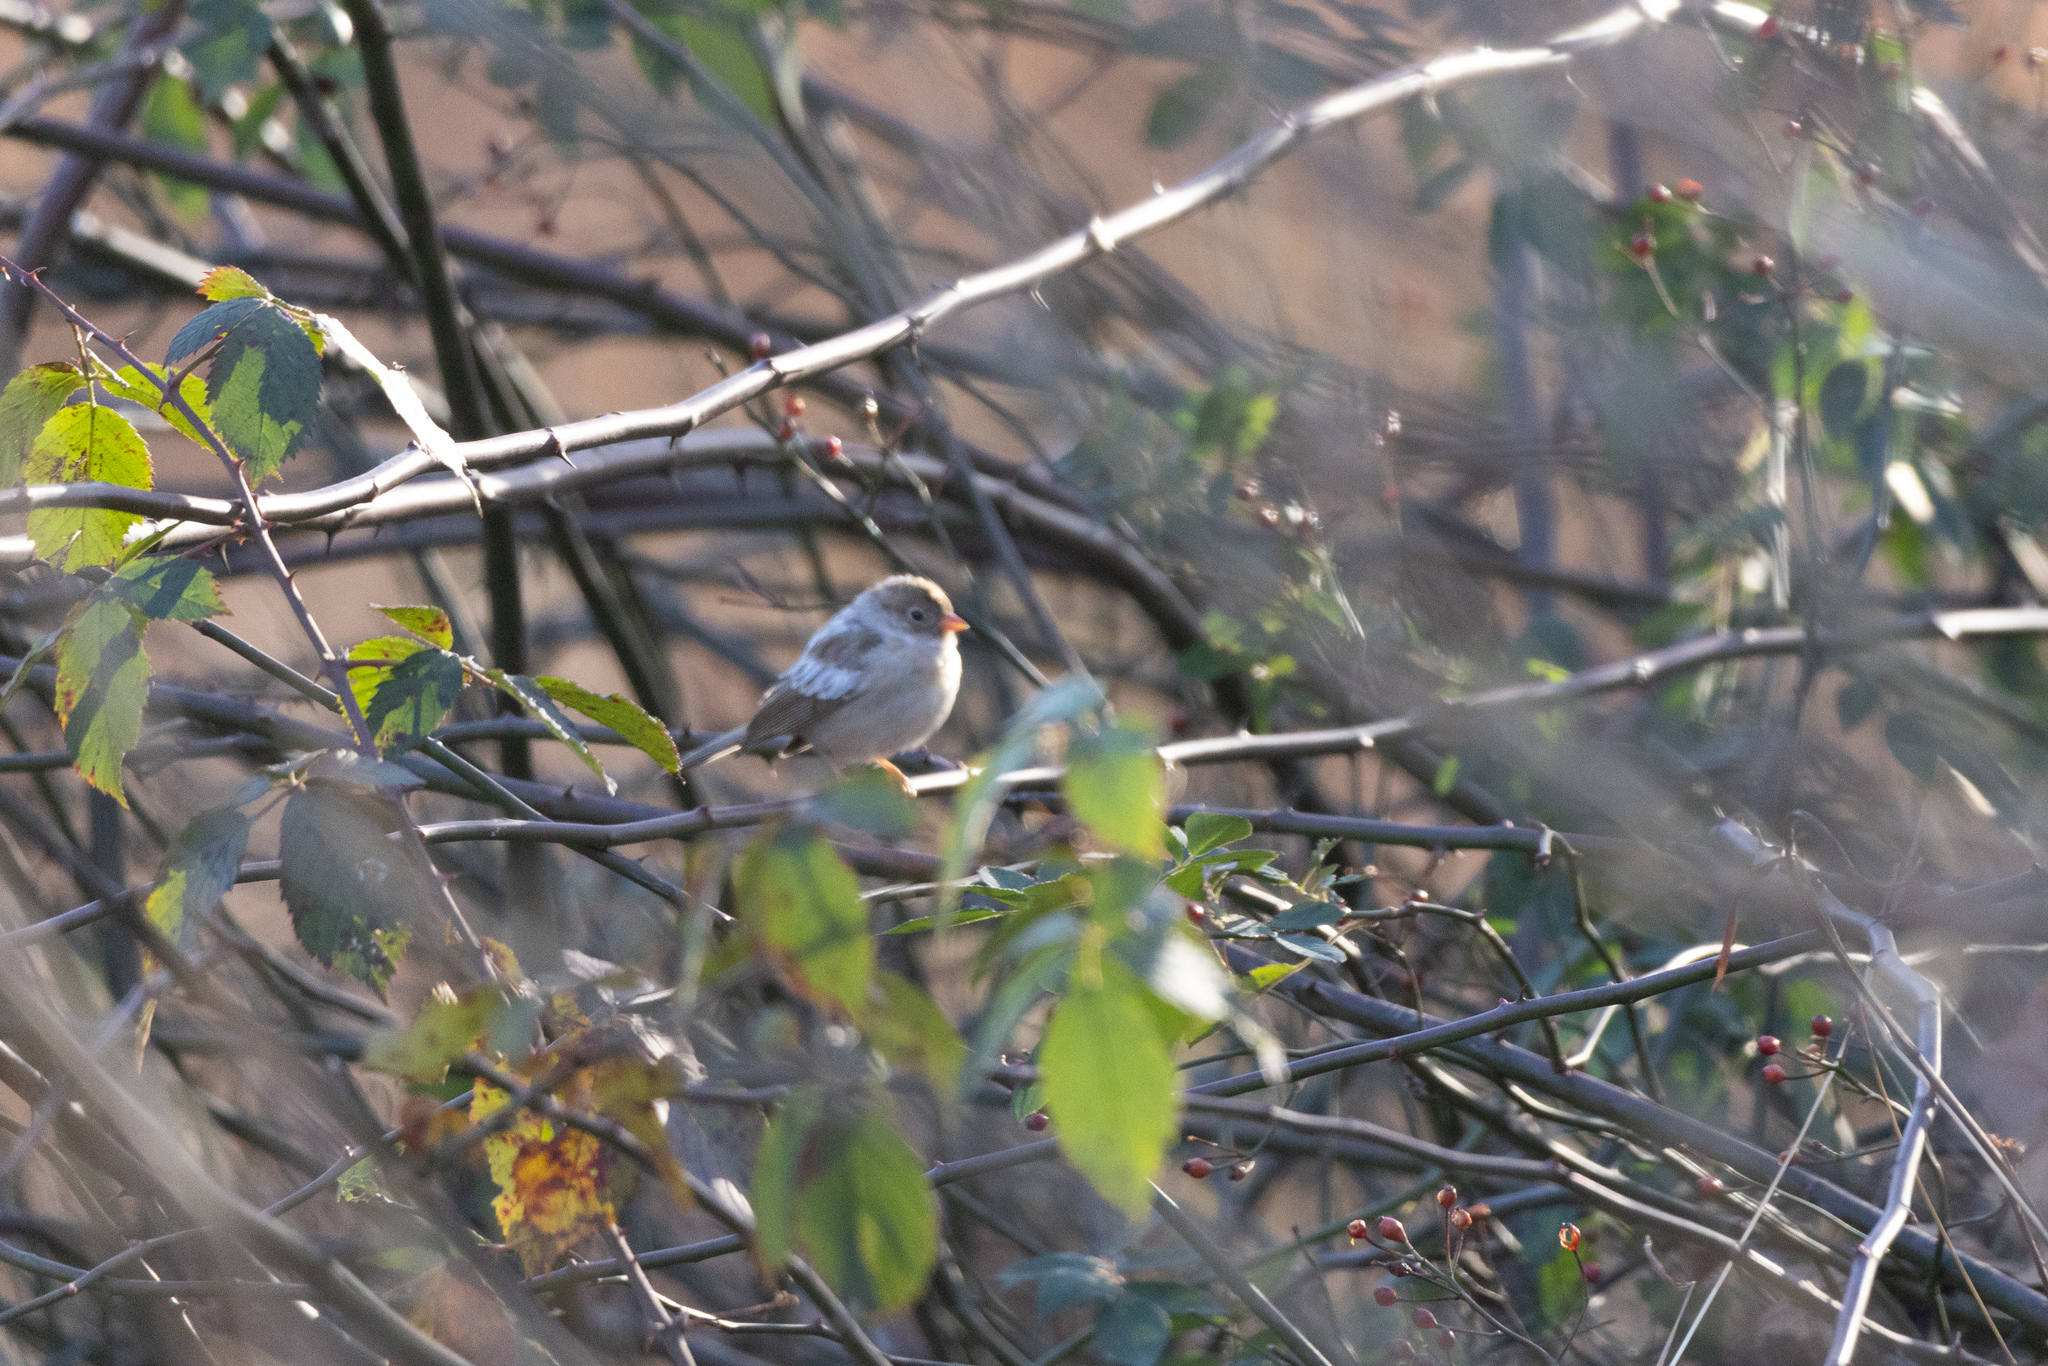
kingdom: Animalia
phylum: Chordata
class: Aves
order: Passeriformes
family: Passerellidae
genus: Spizella
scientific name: Spizella pusilla
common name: Field sparrow
